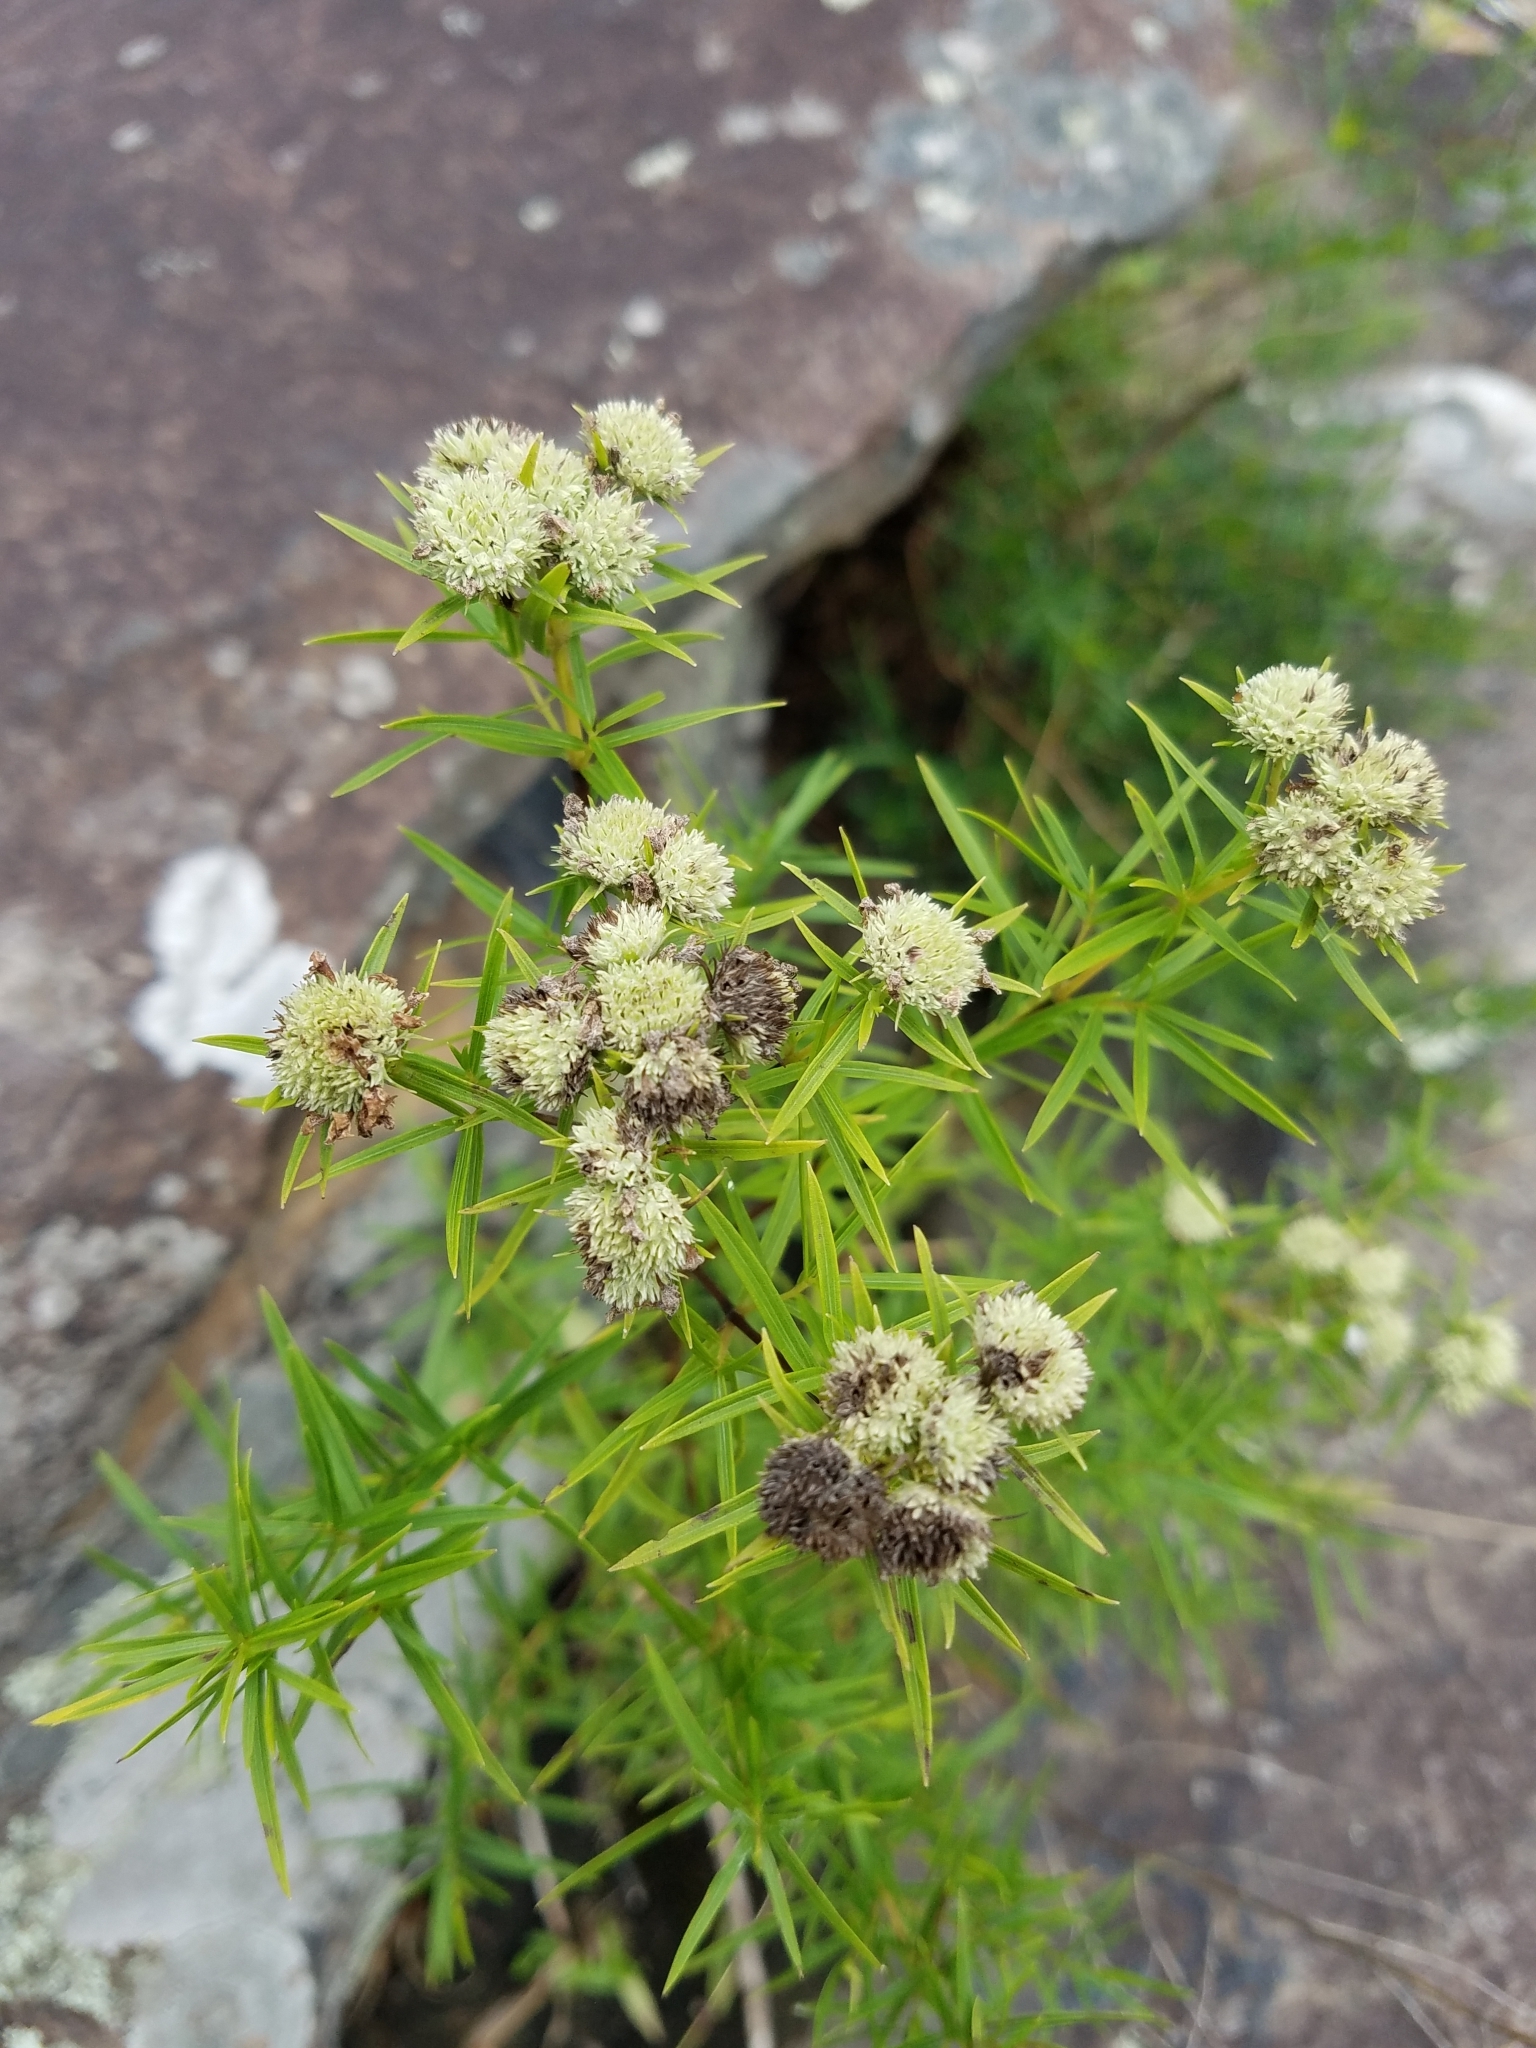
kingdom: Plantae
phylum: Tracheophyta
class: Magnoliopsida
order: Lamiales
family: Lamiaceae
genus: Pycnanthemum
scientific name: Pycnanthemum tenuifolium
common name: Narrow-leaf mountain-mint
